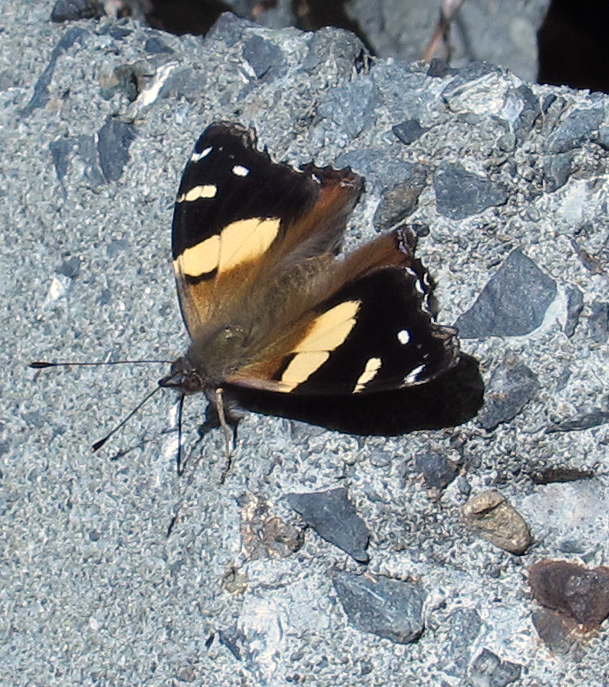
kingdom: Animalia
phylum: Arthropoda
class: Insecta
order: Lepidoptera
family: Nymphalidae
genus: Vanessa
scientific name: Vanessa itea
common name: Yellow admiral
